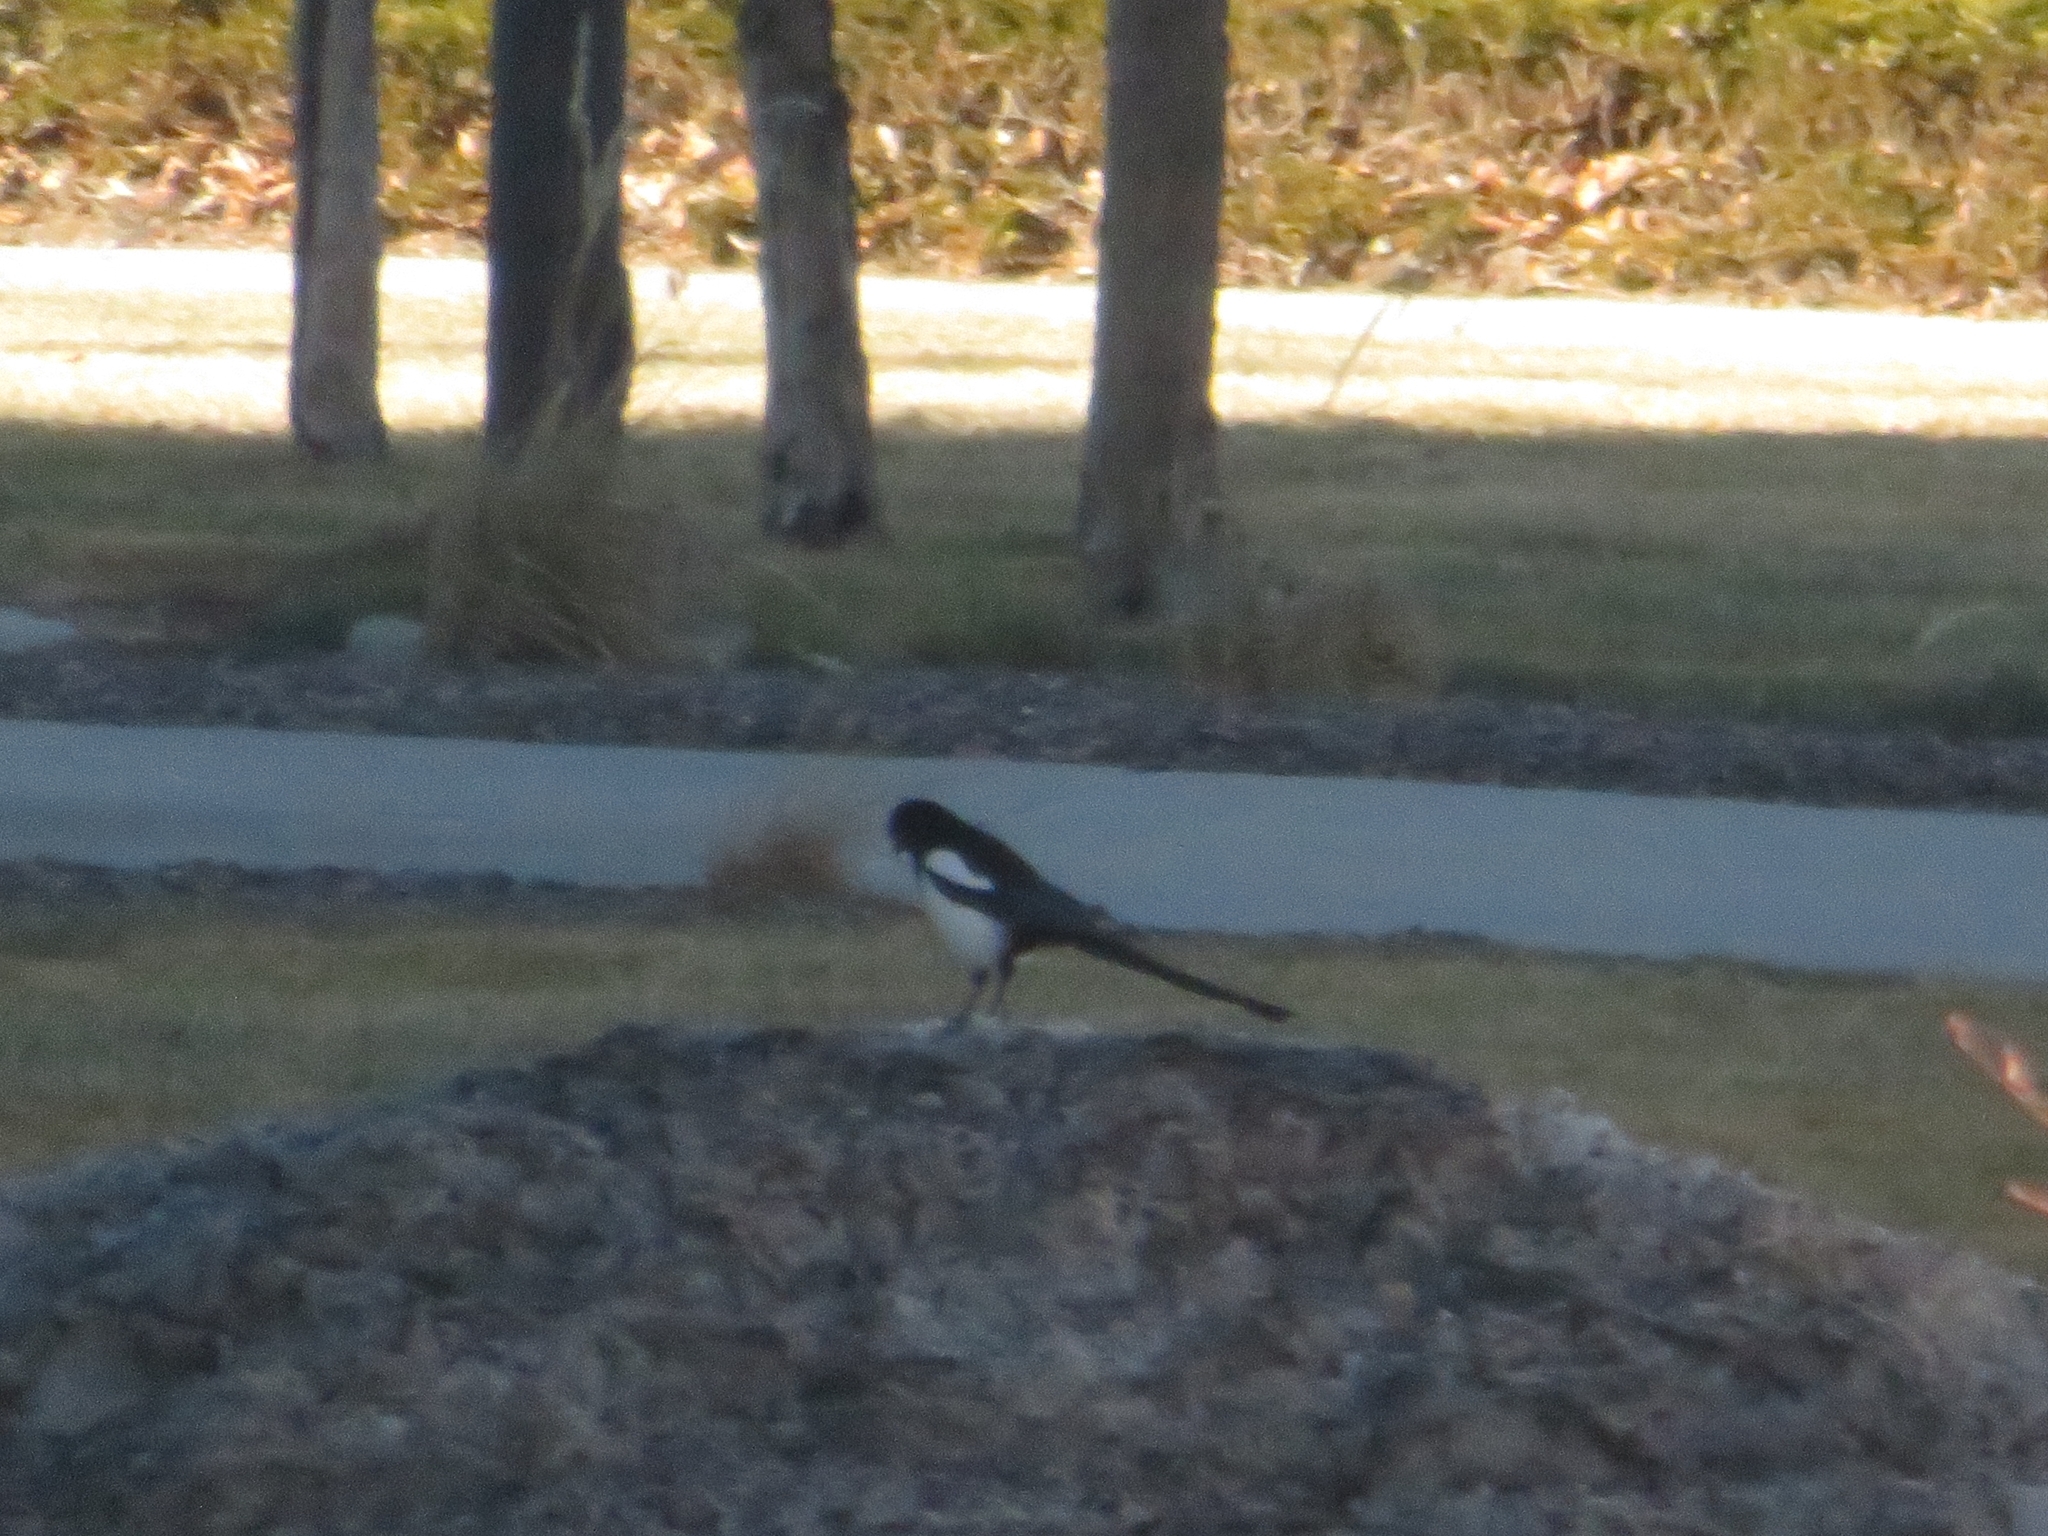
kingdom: Animalia
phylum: Chordata
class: Aves
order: Passeriformes
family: Corvidae
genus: Pica
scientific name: Pica hudsonia
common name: Black-billed magpie
